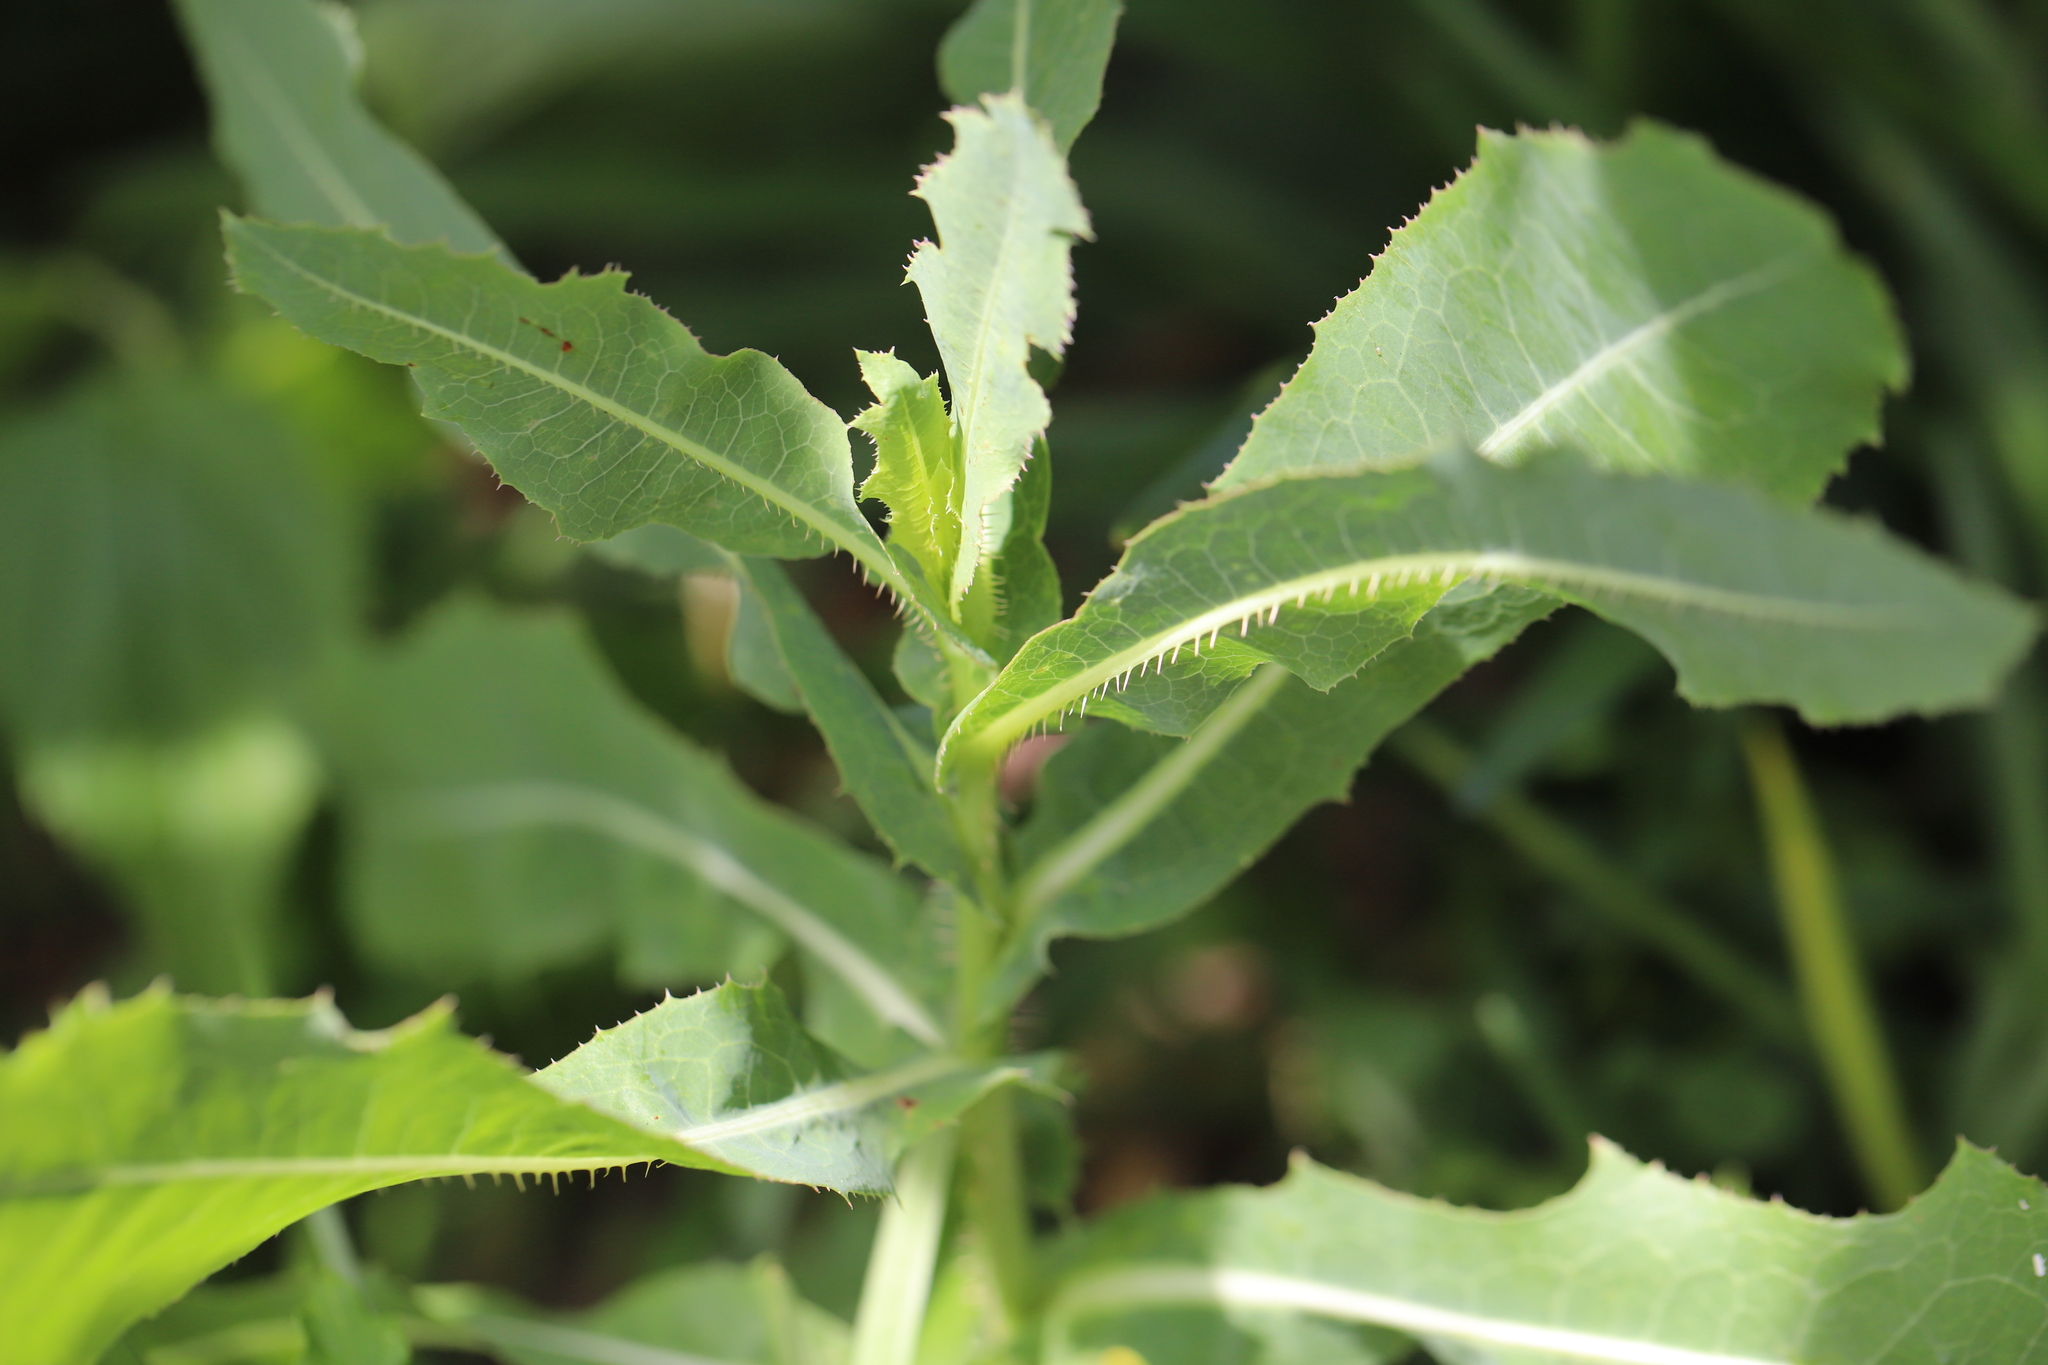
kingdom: Plantae
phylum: Tracheophyta
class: Magnoliopsida
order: Asterales
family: Asteraceae
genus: Lactuca
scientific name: Lactuca serriola
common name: Prickly lettuce
